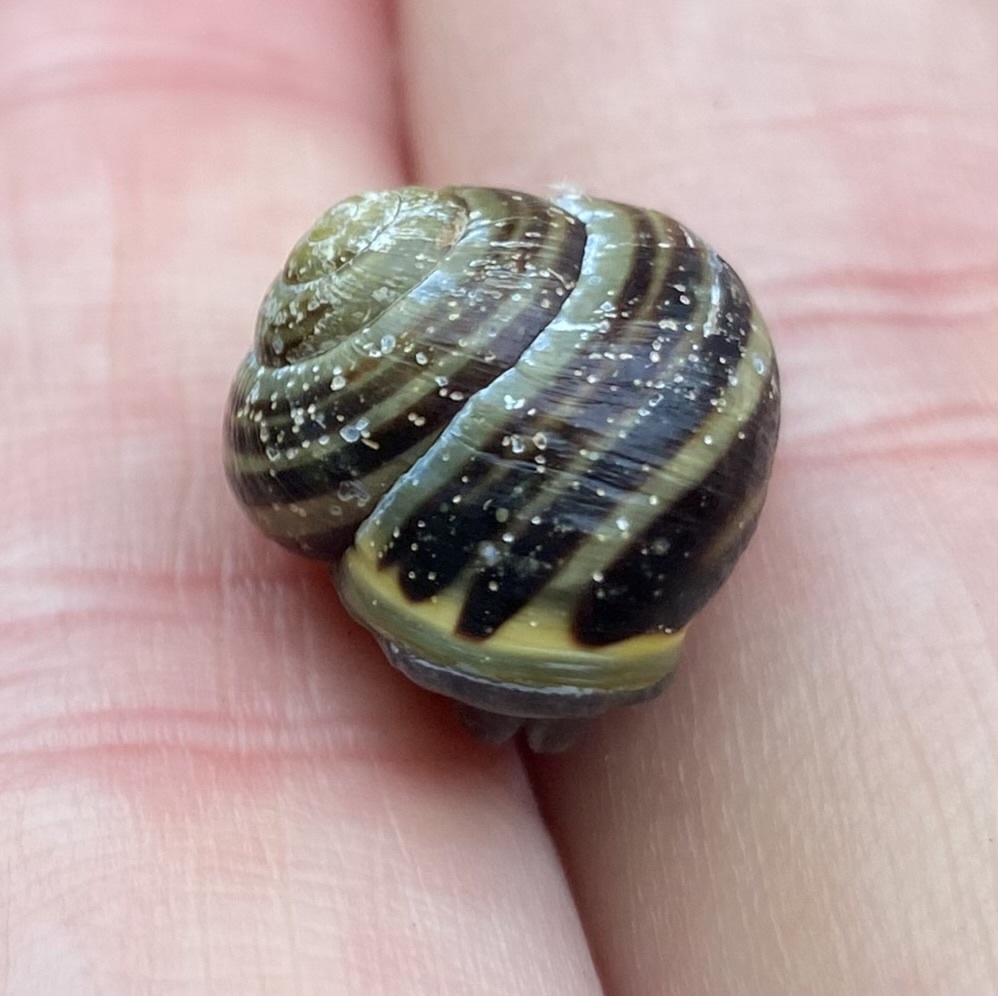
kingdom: Animalia
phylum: Mollusca
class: Gastropoda
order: Stylommatophora
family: Helicidae
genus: Cepaea
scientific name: Cepaea nemoralis
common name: Grovesnail
